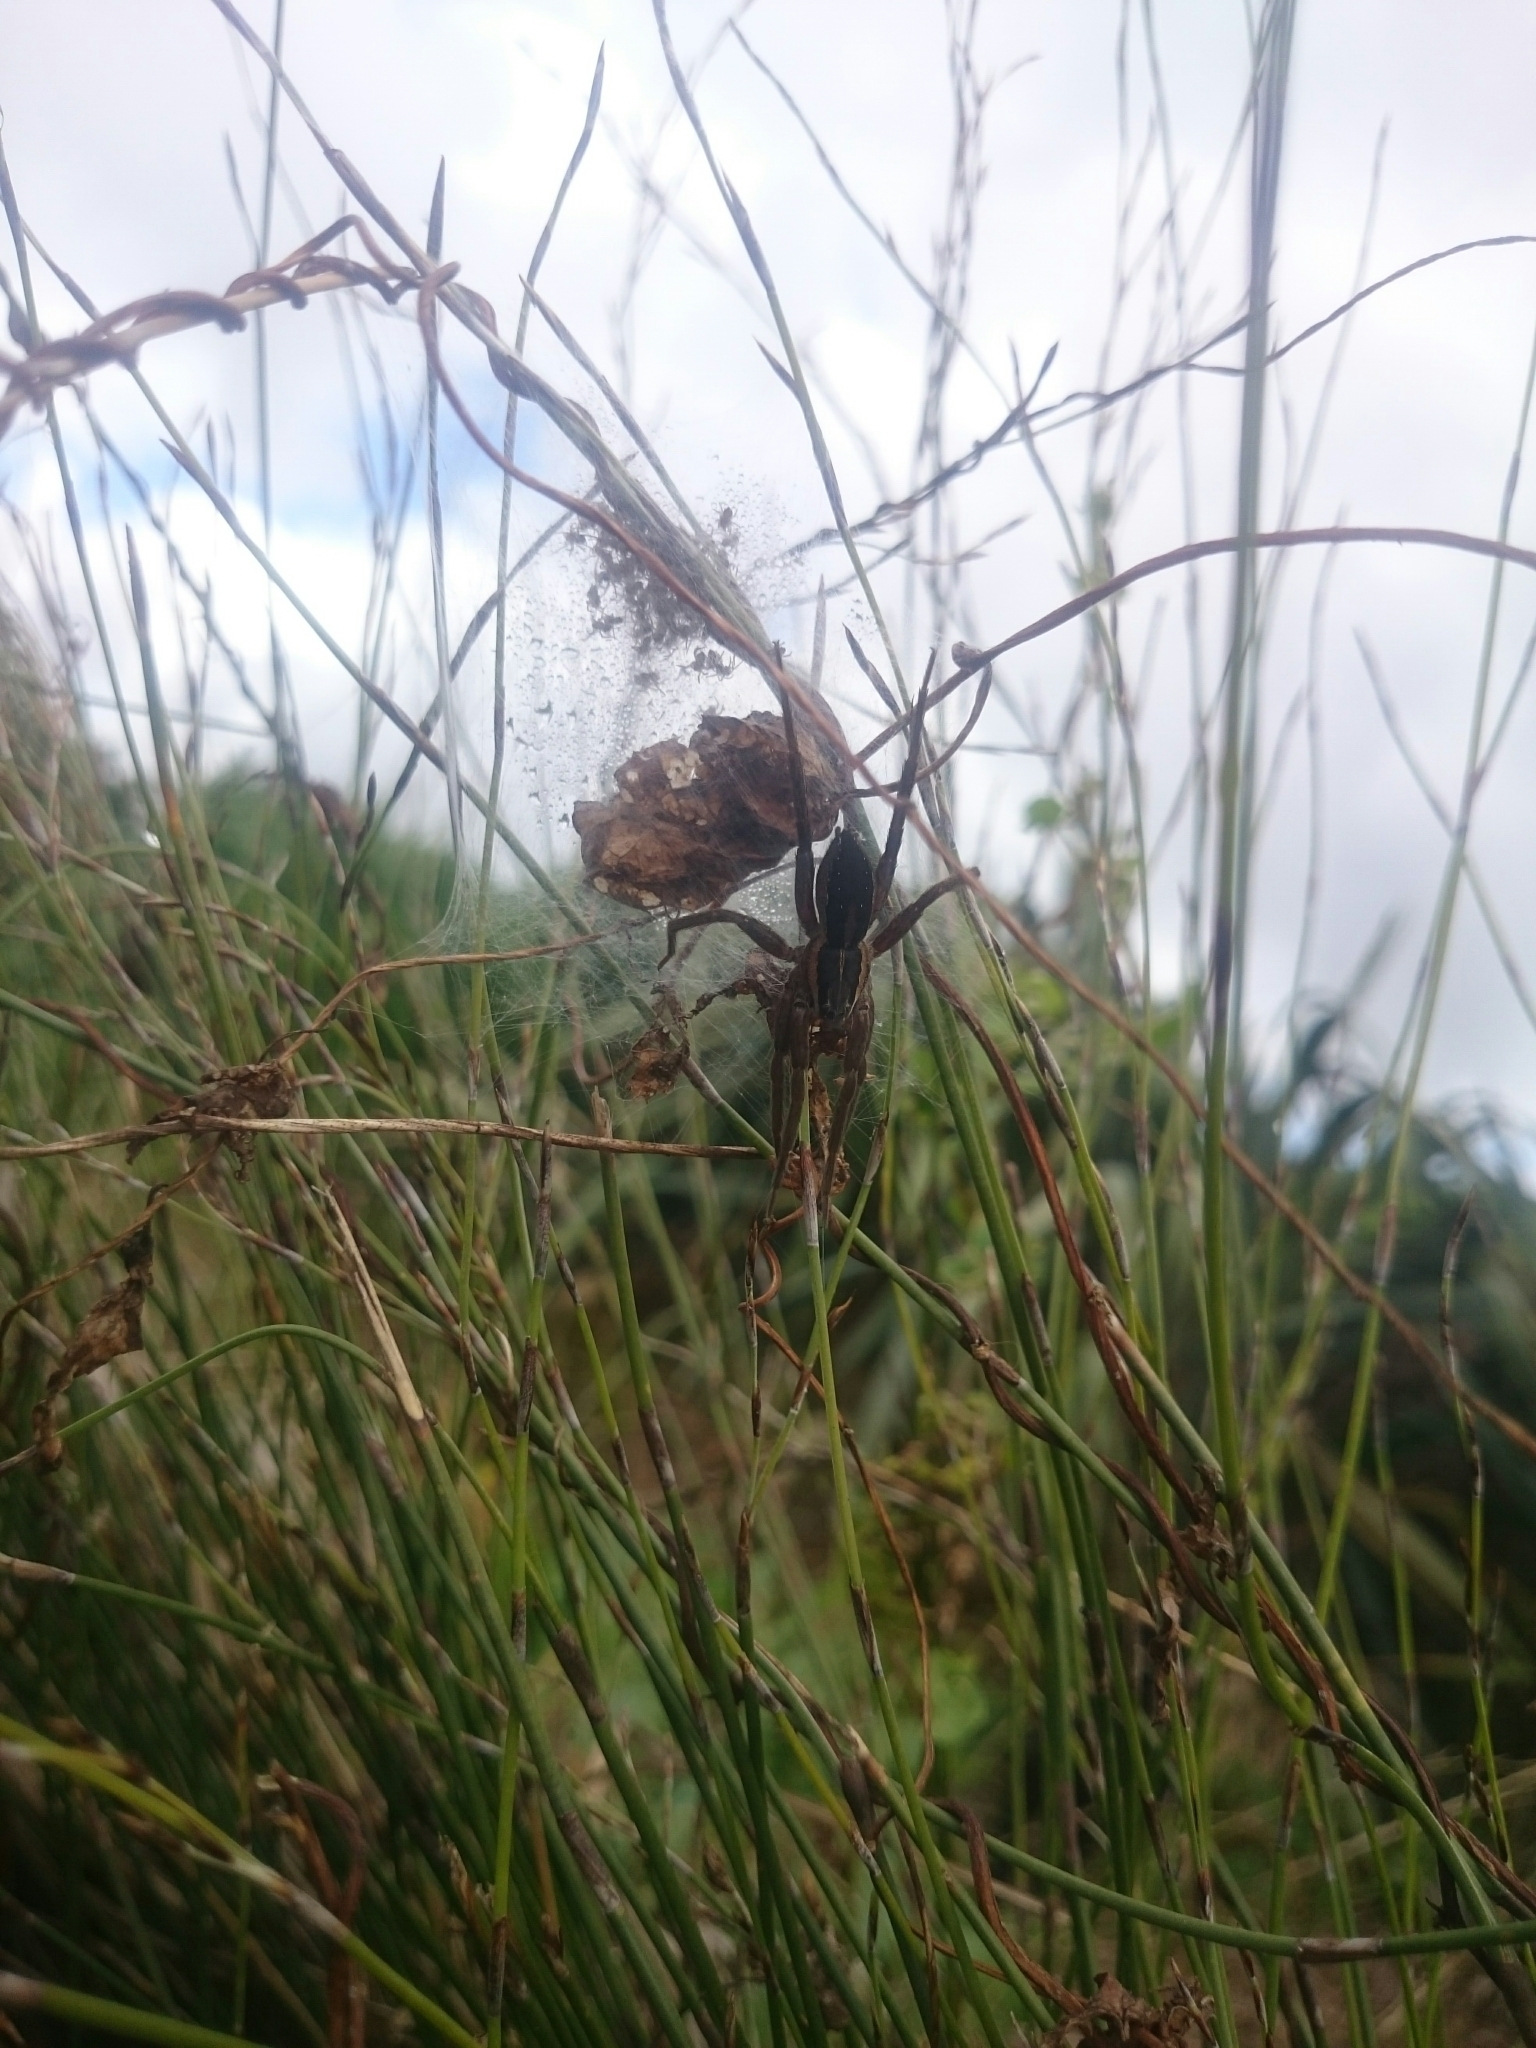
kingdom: Animalia
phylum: Arthropoda
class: Arachnida
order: Araneae
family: Pisauridae
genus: Dolomedes
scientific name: Dolomedes minor
